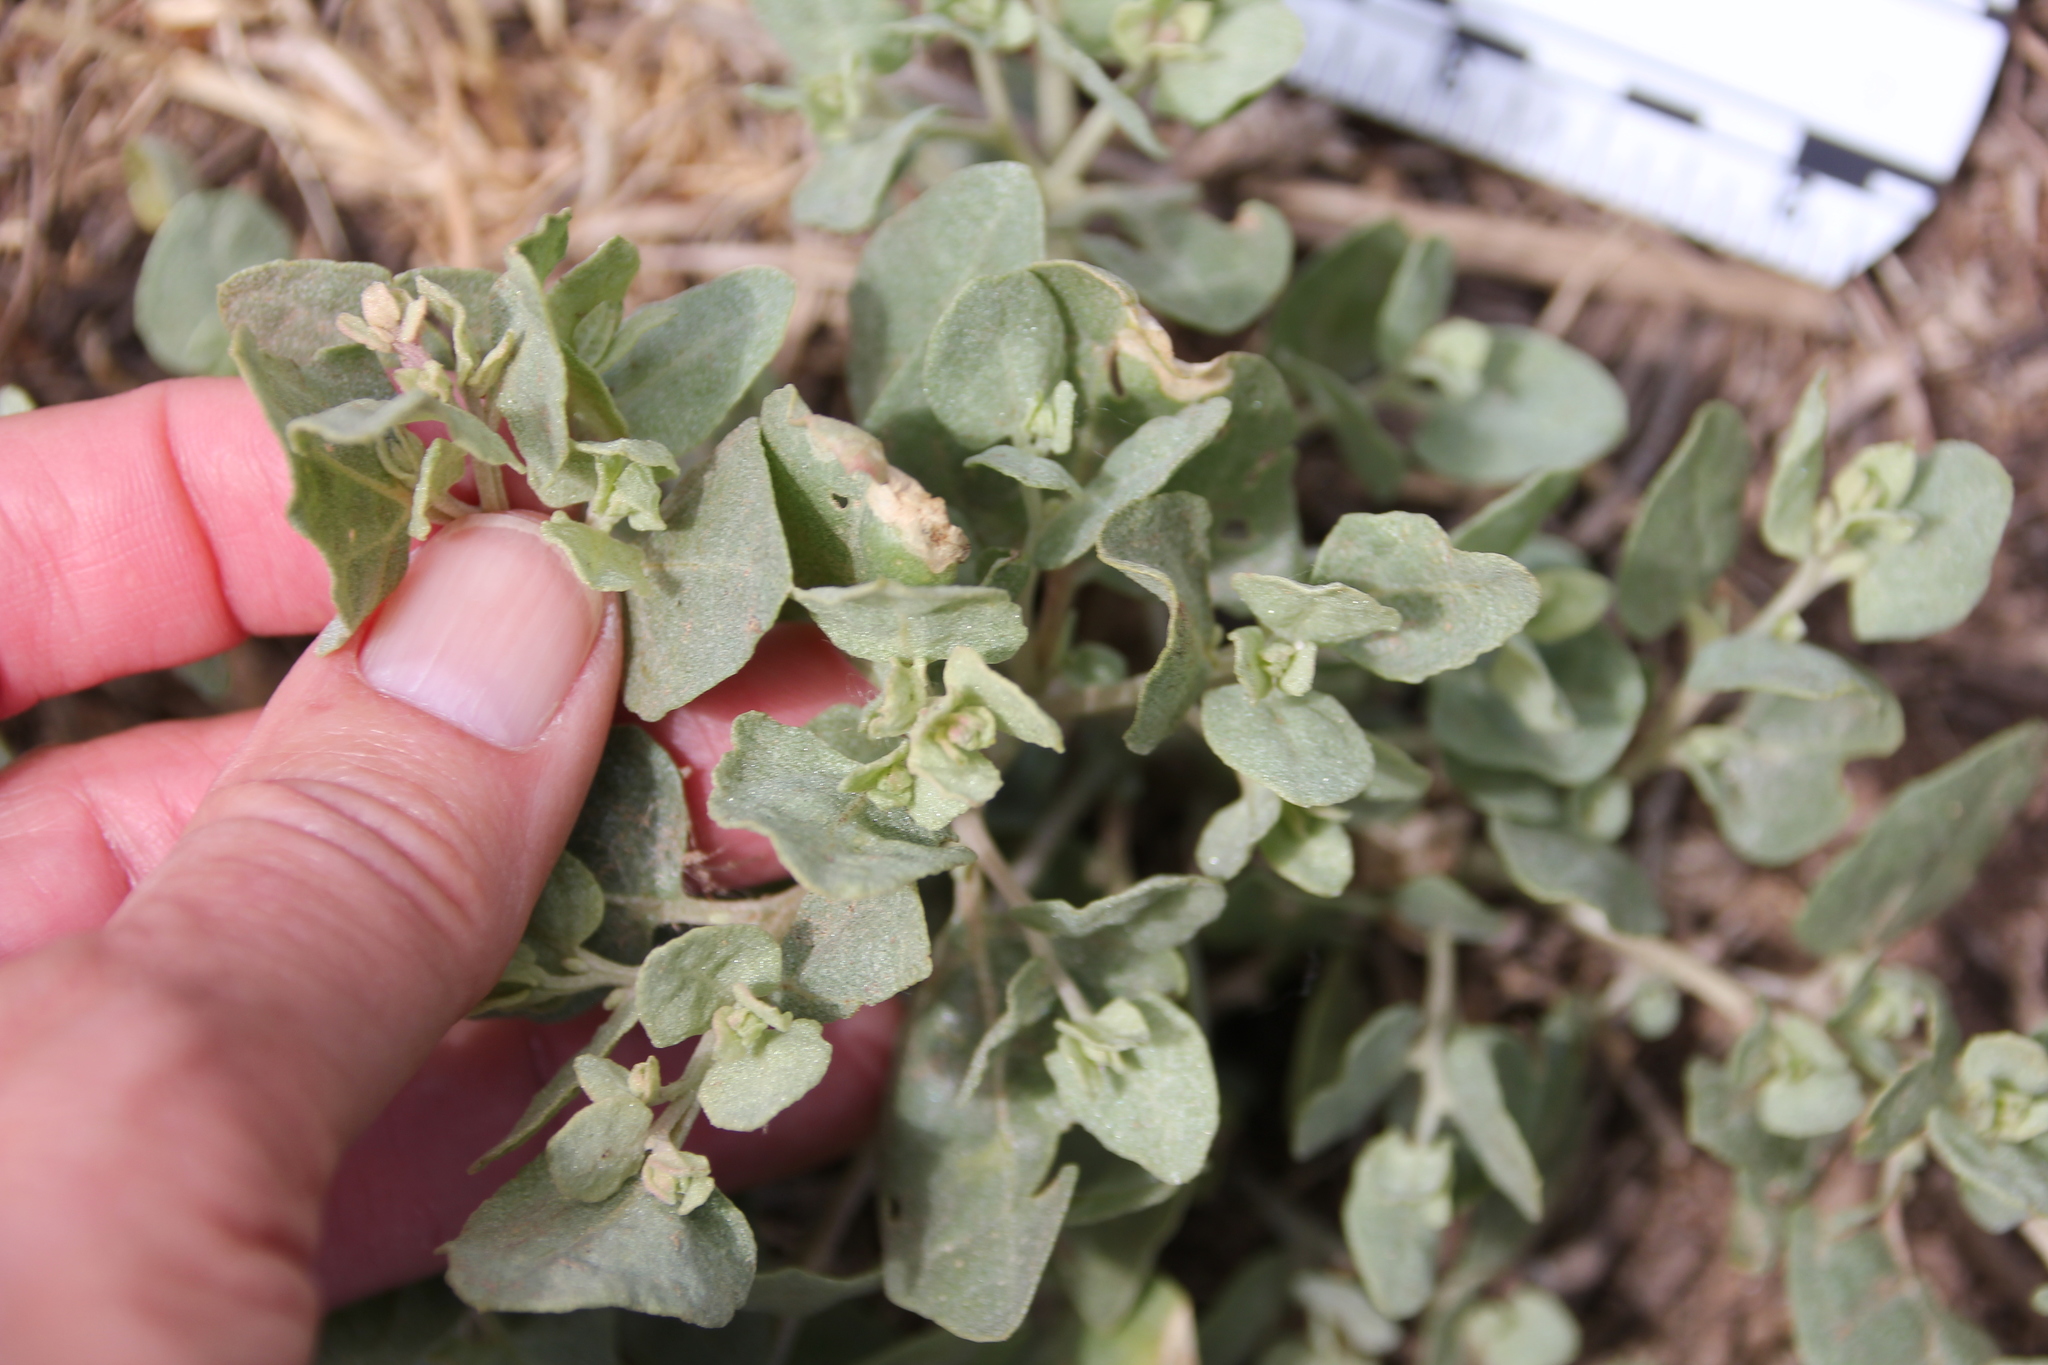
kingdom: Plantae
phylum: Tracheophyta
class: Magnoliopsida
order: Caryophyllales
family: Amaranthaceae
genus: Atriplex
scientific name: Atriplex lentiformis
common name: Big saltbush
